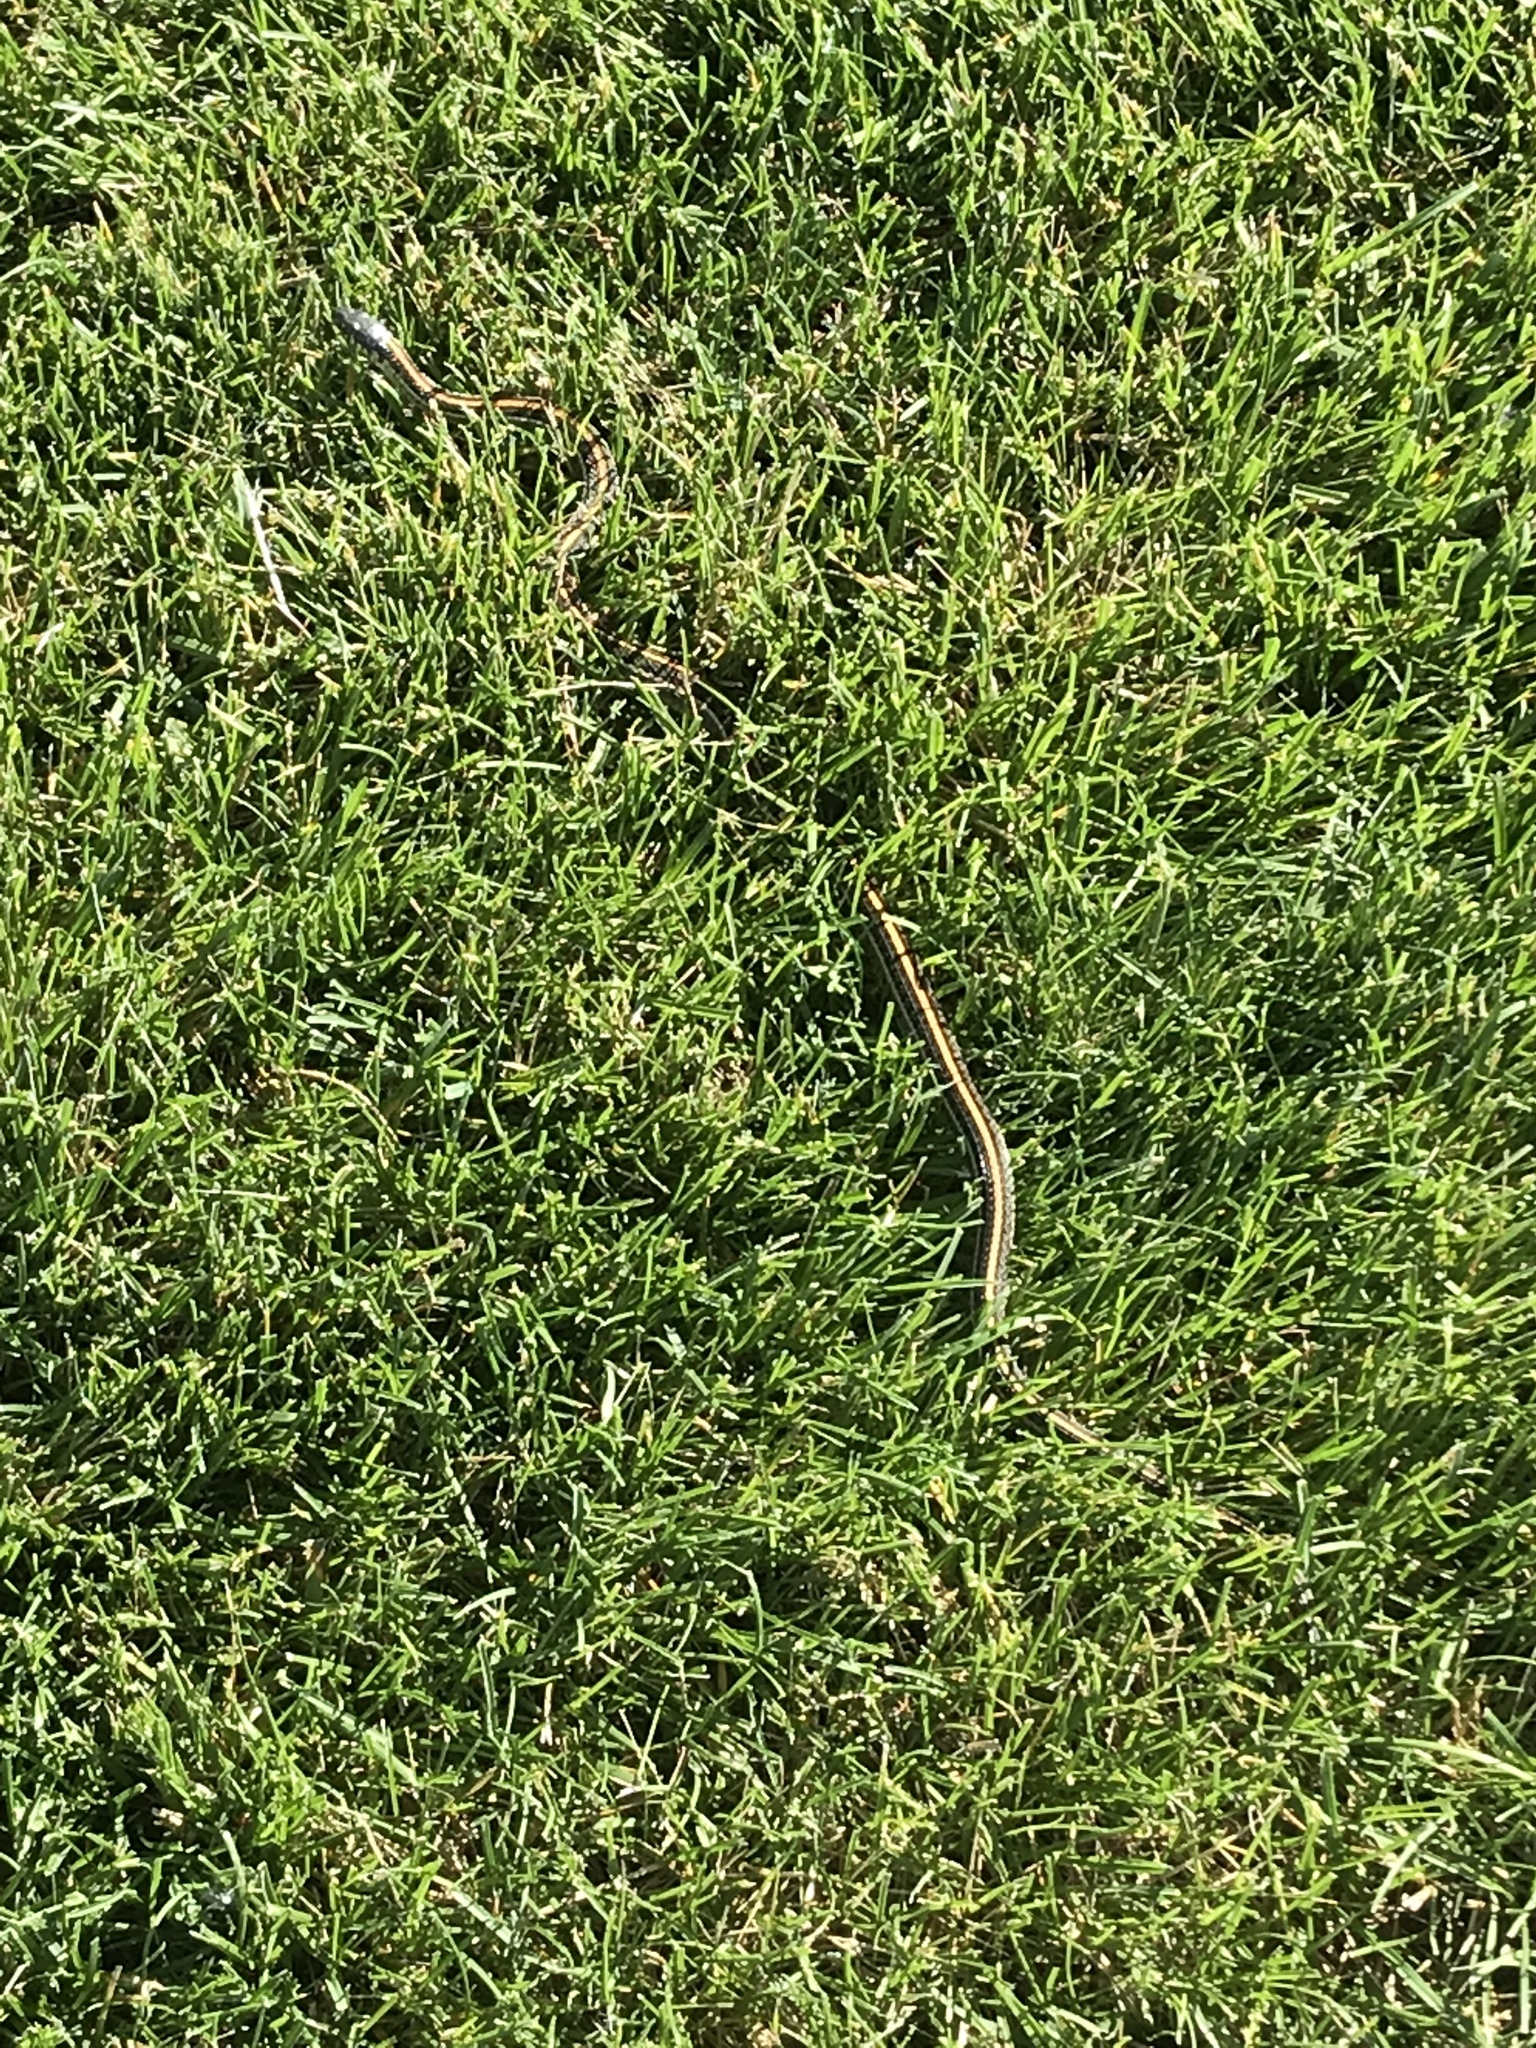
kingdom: Animalia
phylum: Chordata
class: Squamata
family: Colubridae
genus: Thamnophis
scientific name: Thamnophis radix
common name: Plains garter snake
